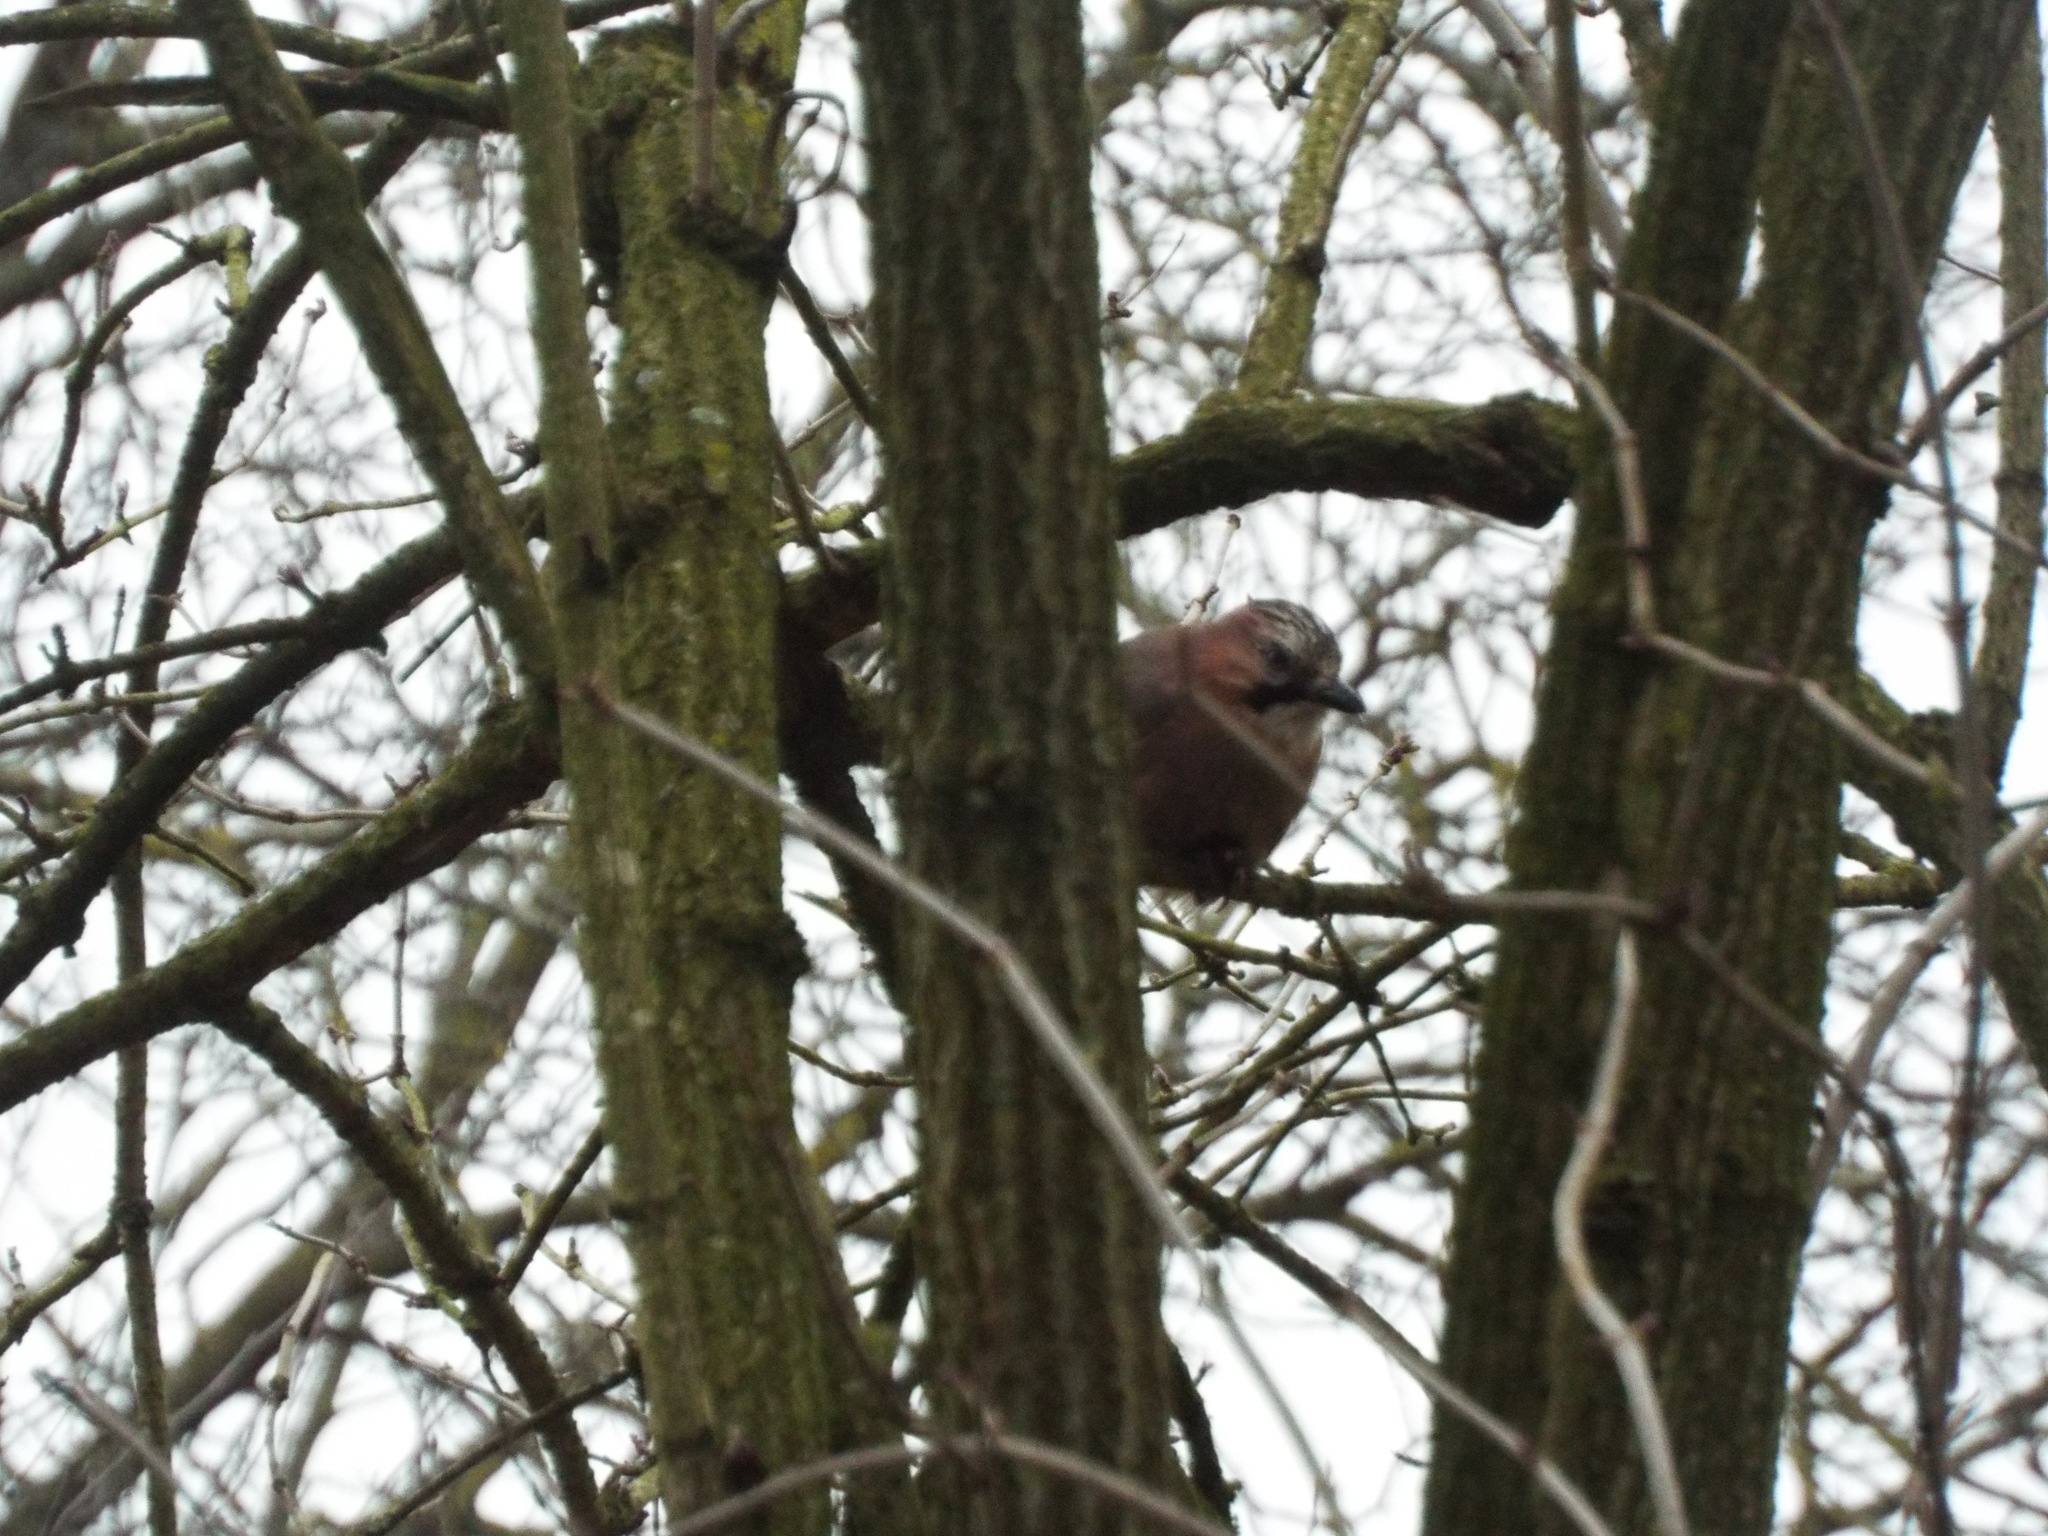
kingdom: Animalia
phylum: Chordata
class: Aves
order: Passeriformes
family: Corvidae
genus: Garrulus
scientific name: Garrulus glandarius
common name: Eurasian jay
